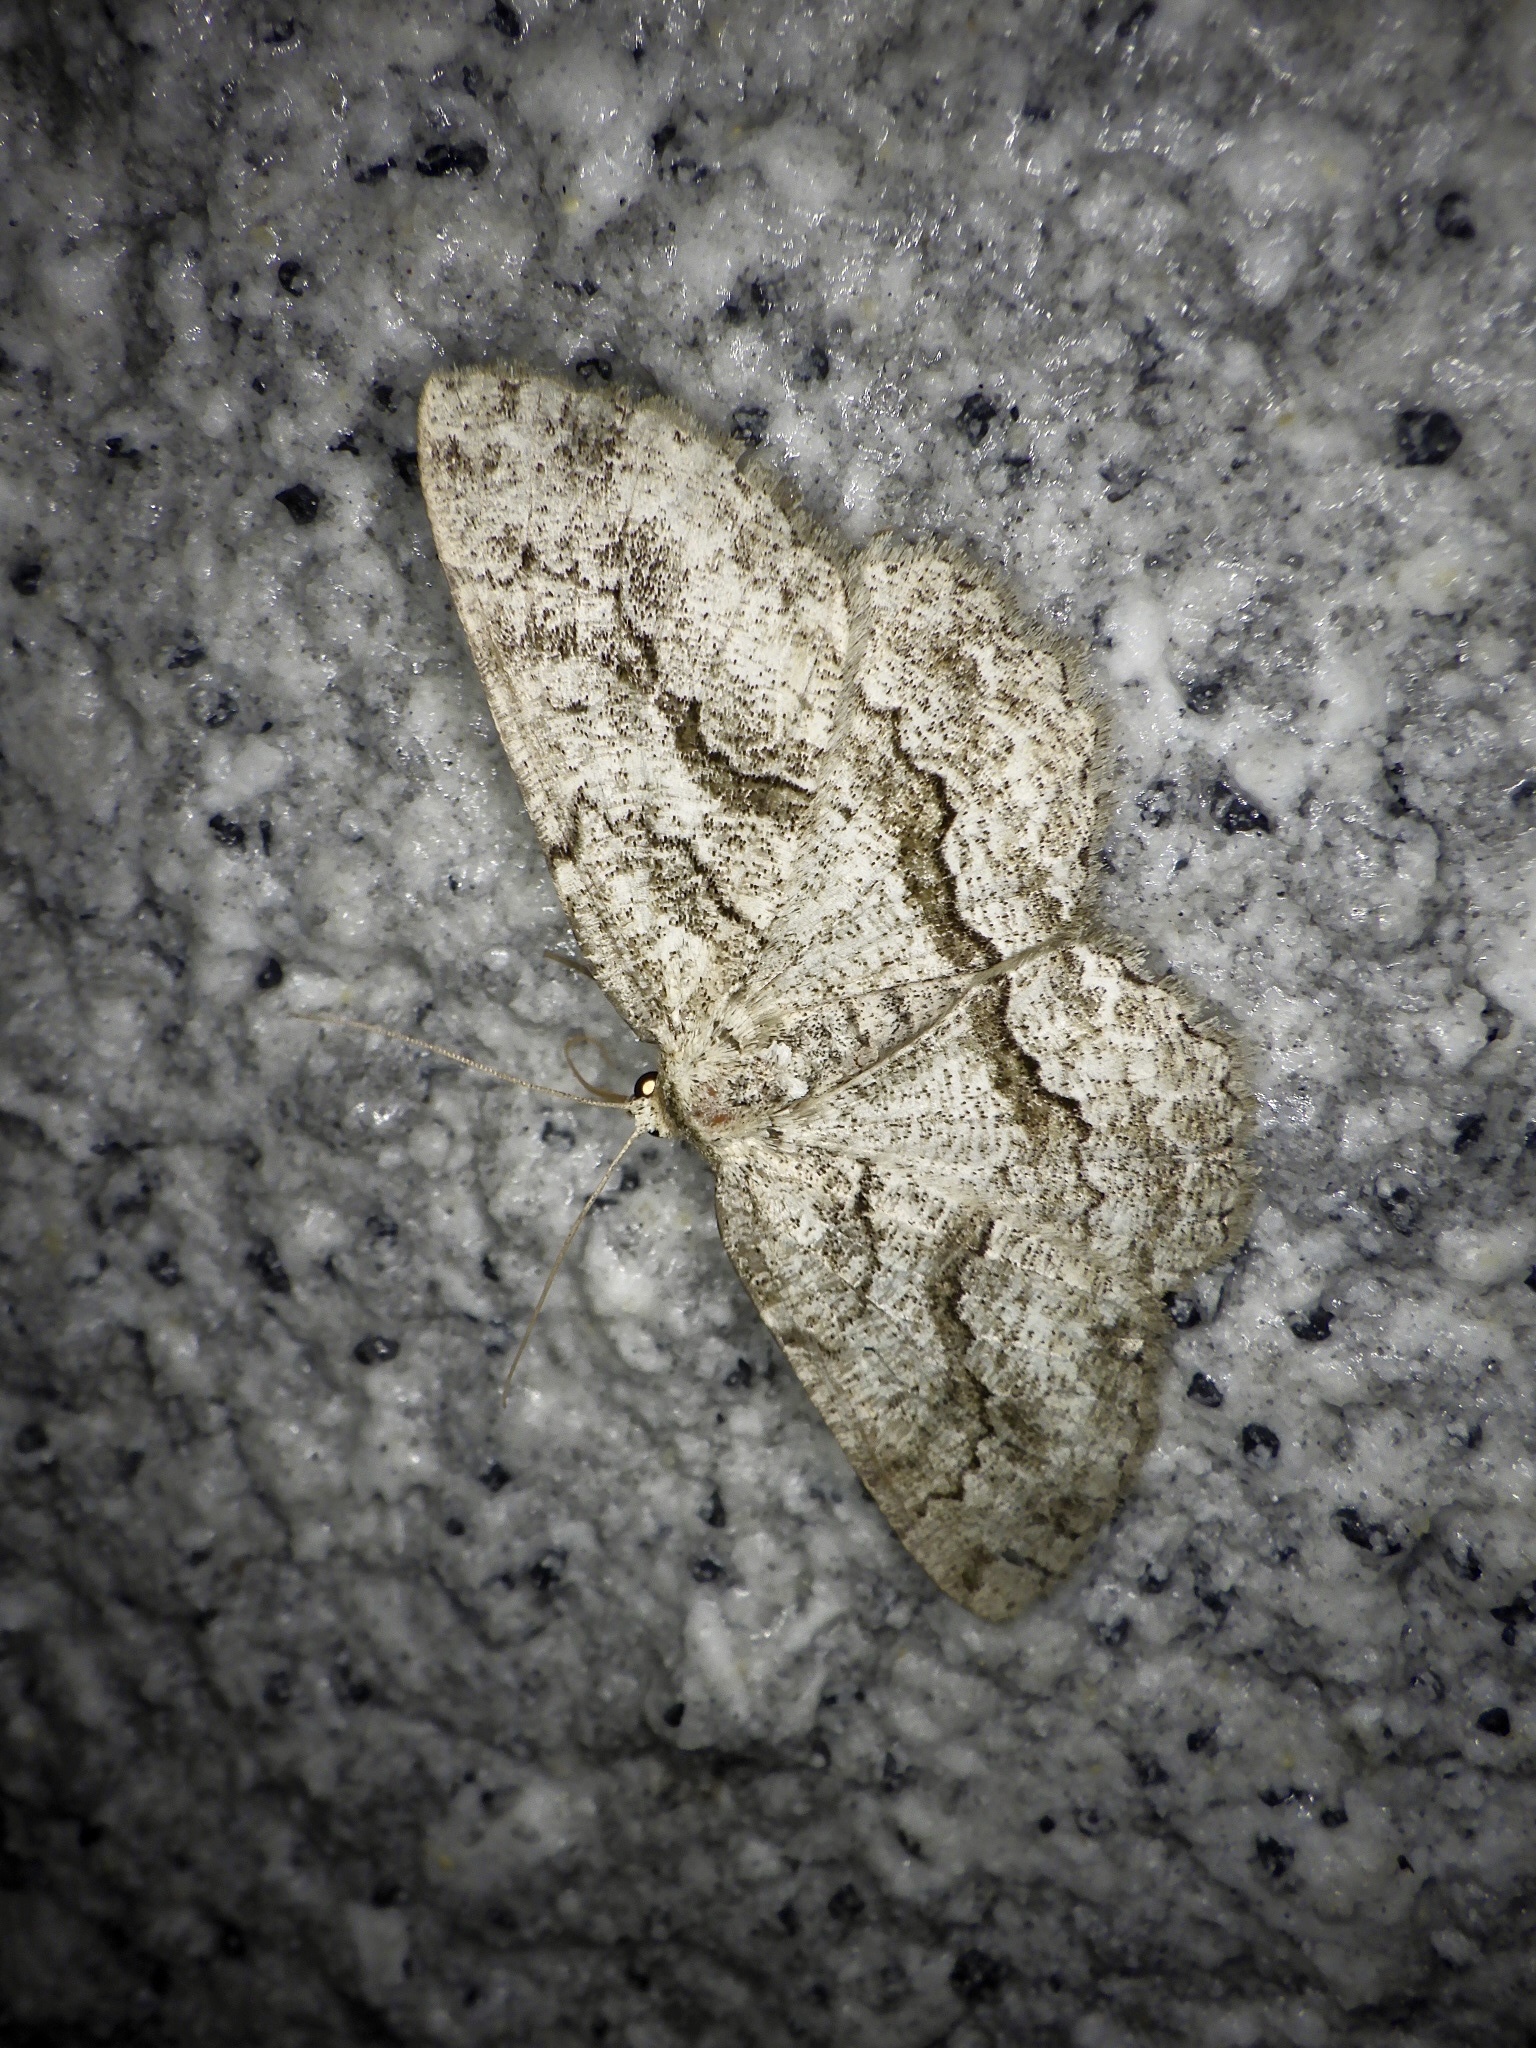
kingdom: Animalia
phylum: Arthropoda
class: Insecta
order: Lepidoptera
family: Geometridae
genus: Hirasa
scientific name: Hirasa paupera
